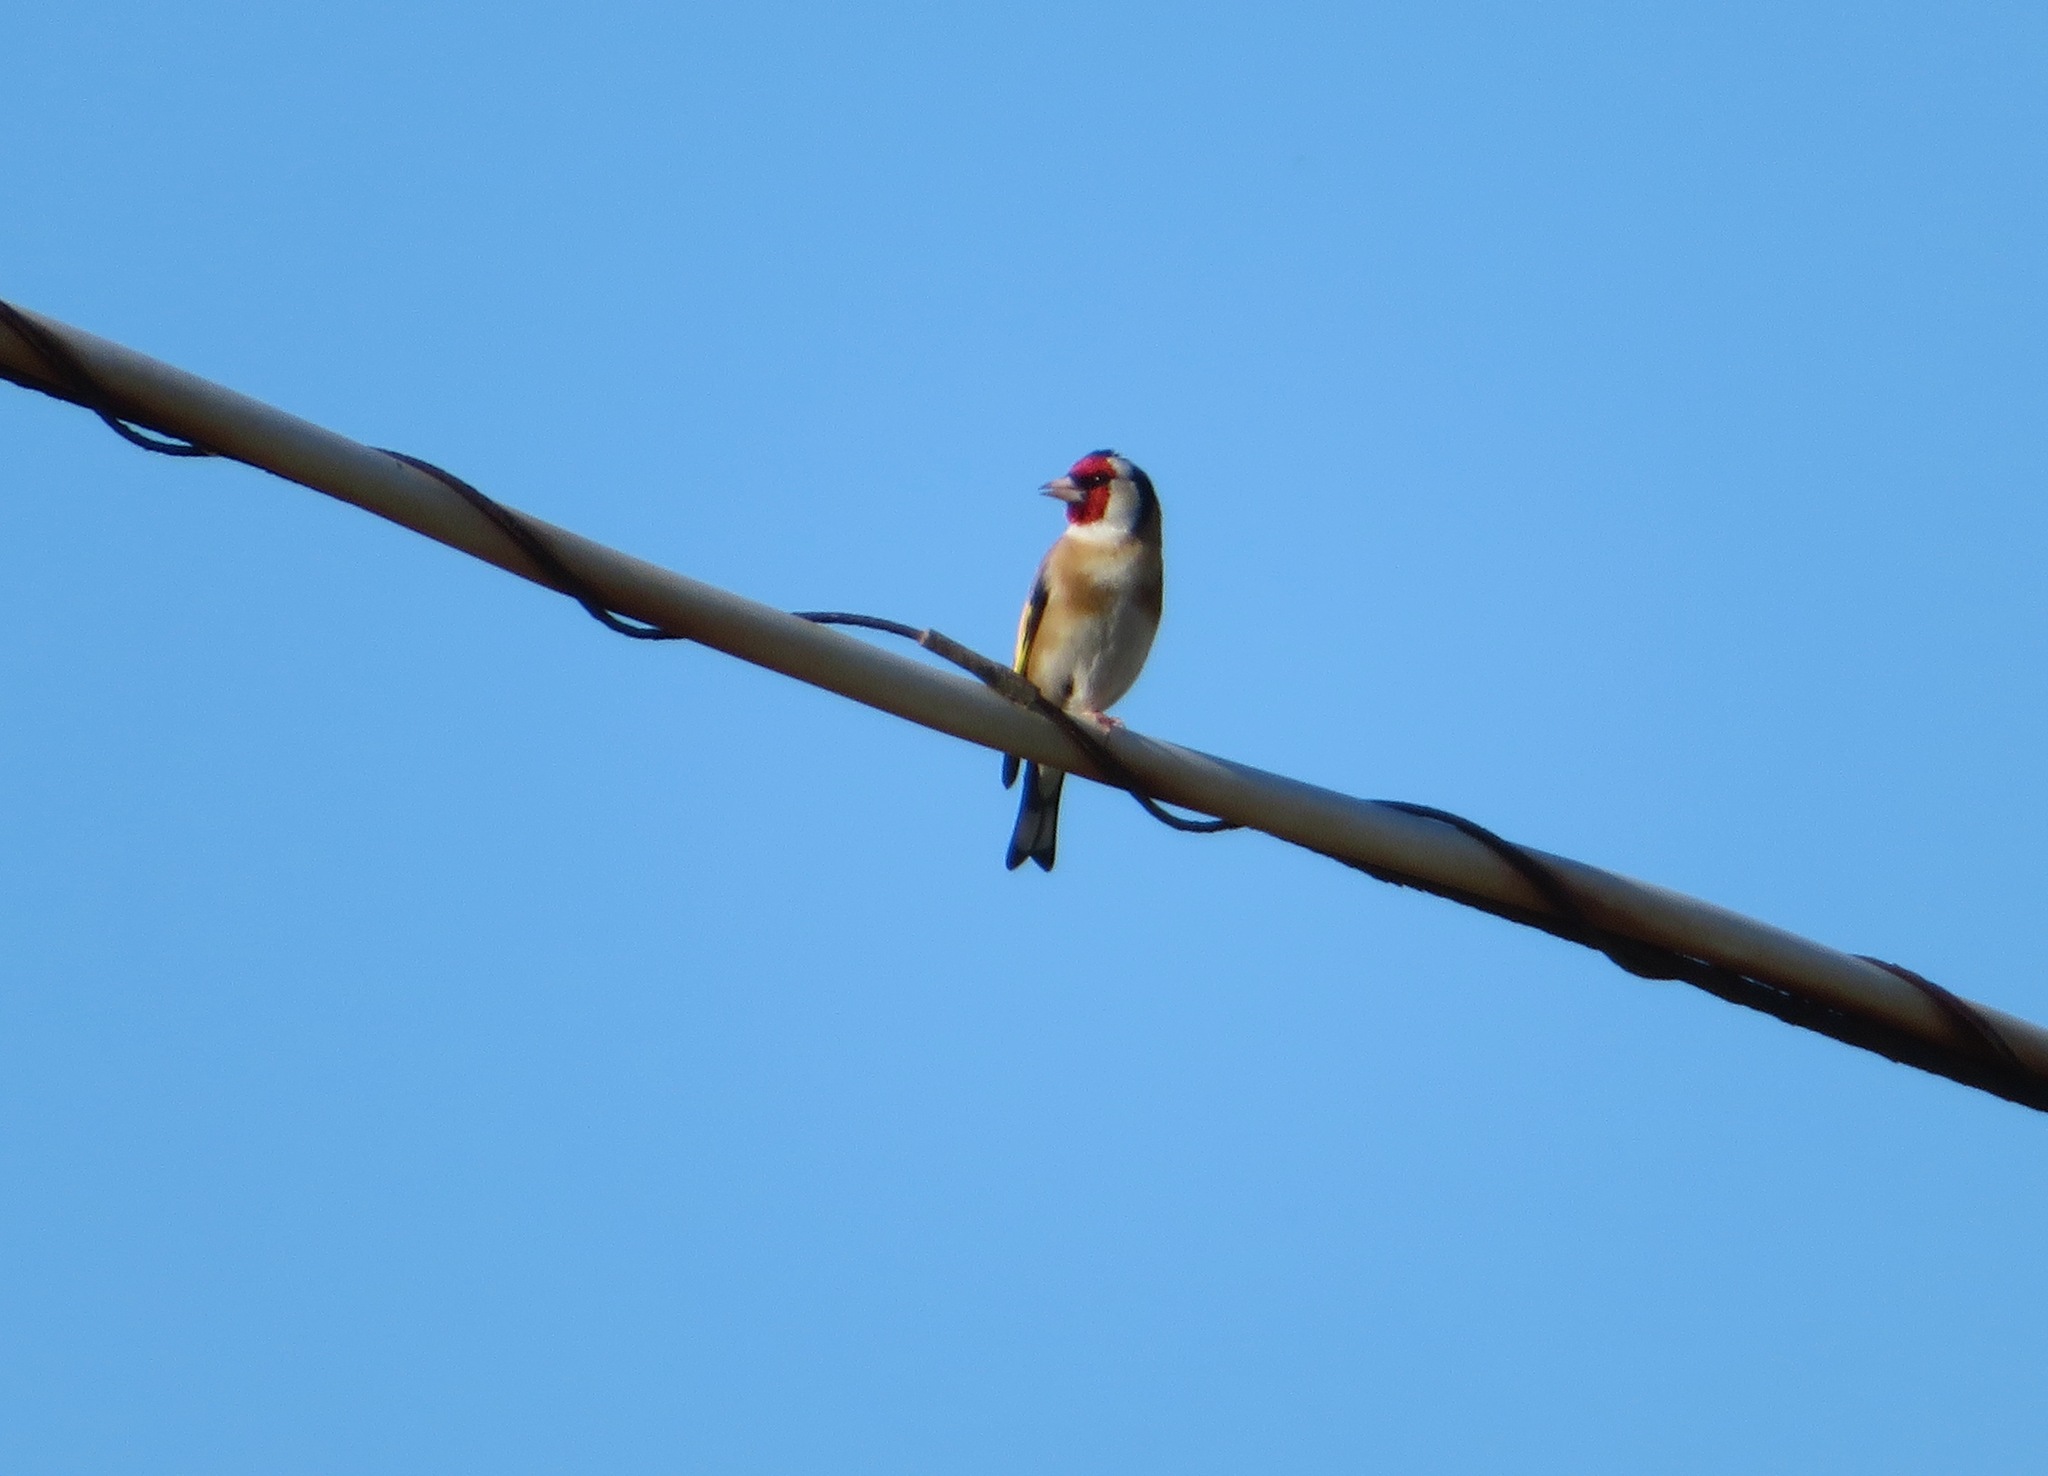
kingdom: Animalia
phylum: Chordata
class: Aves
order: Passeriformes
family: Fringillidae
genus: Carduelis
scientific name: Carduelis carduelis
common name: European goldfinch
